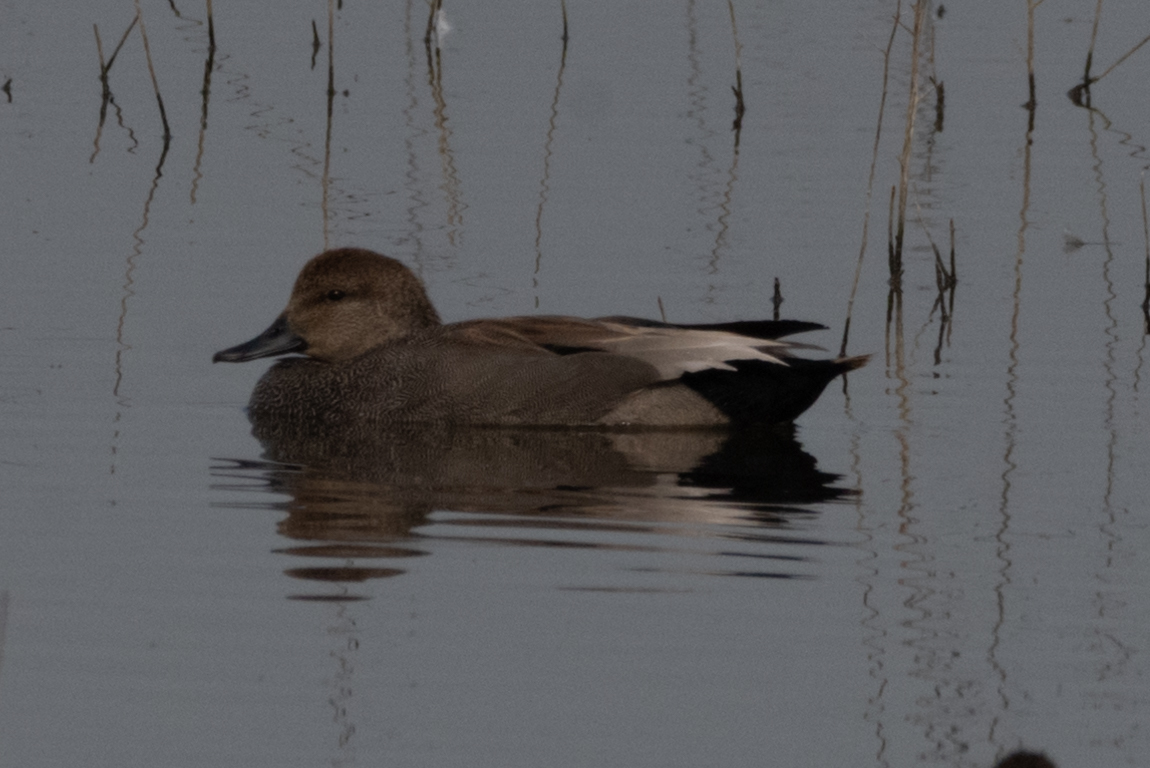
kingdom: Animalia
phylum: Chordata
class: Aves
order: Anseriformes
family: Anatidae
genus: Mareca
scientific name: Mareca strepera
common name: Gadwall
